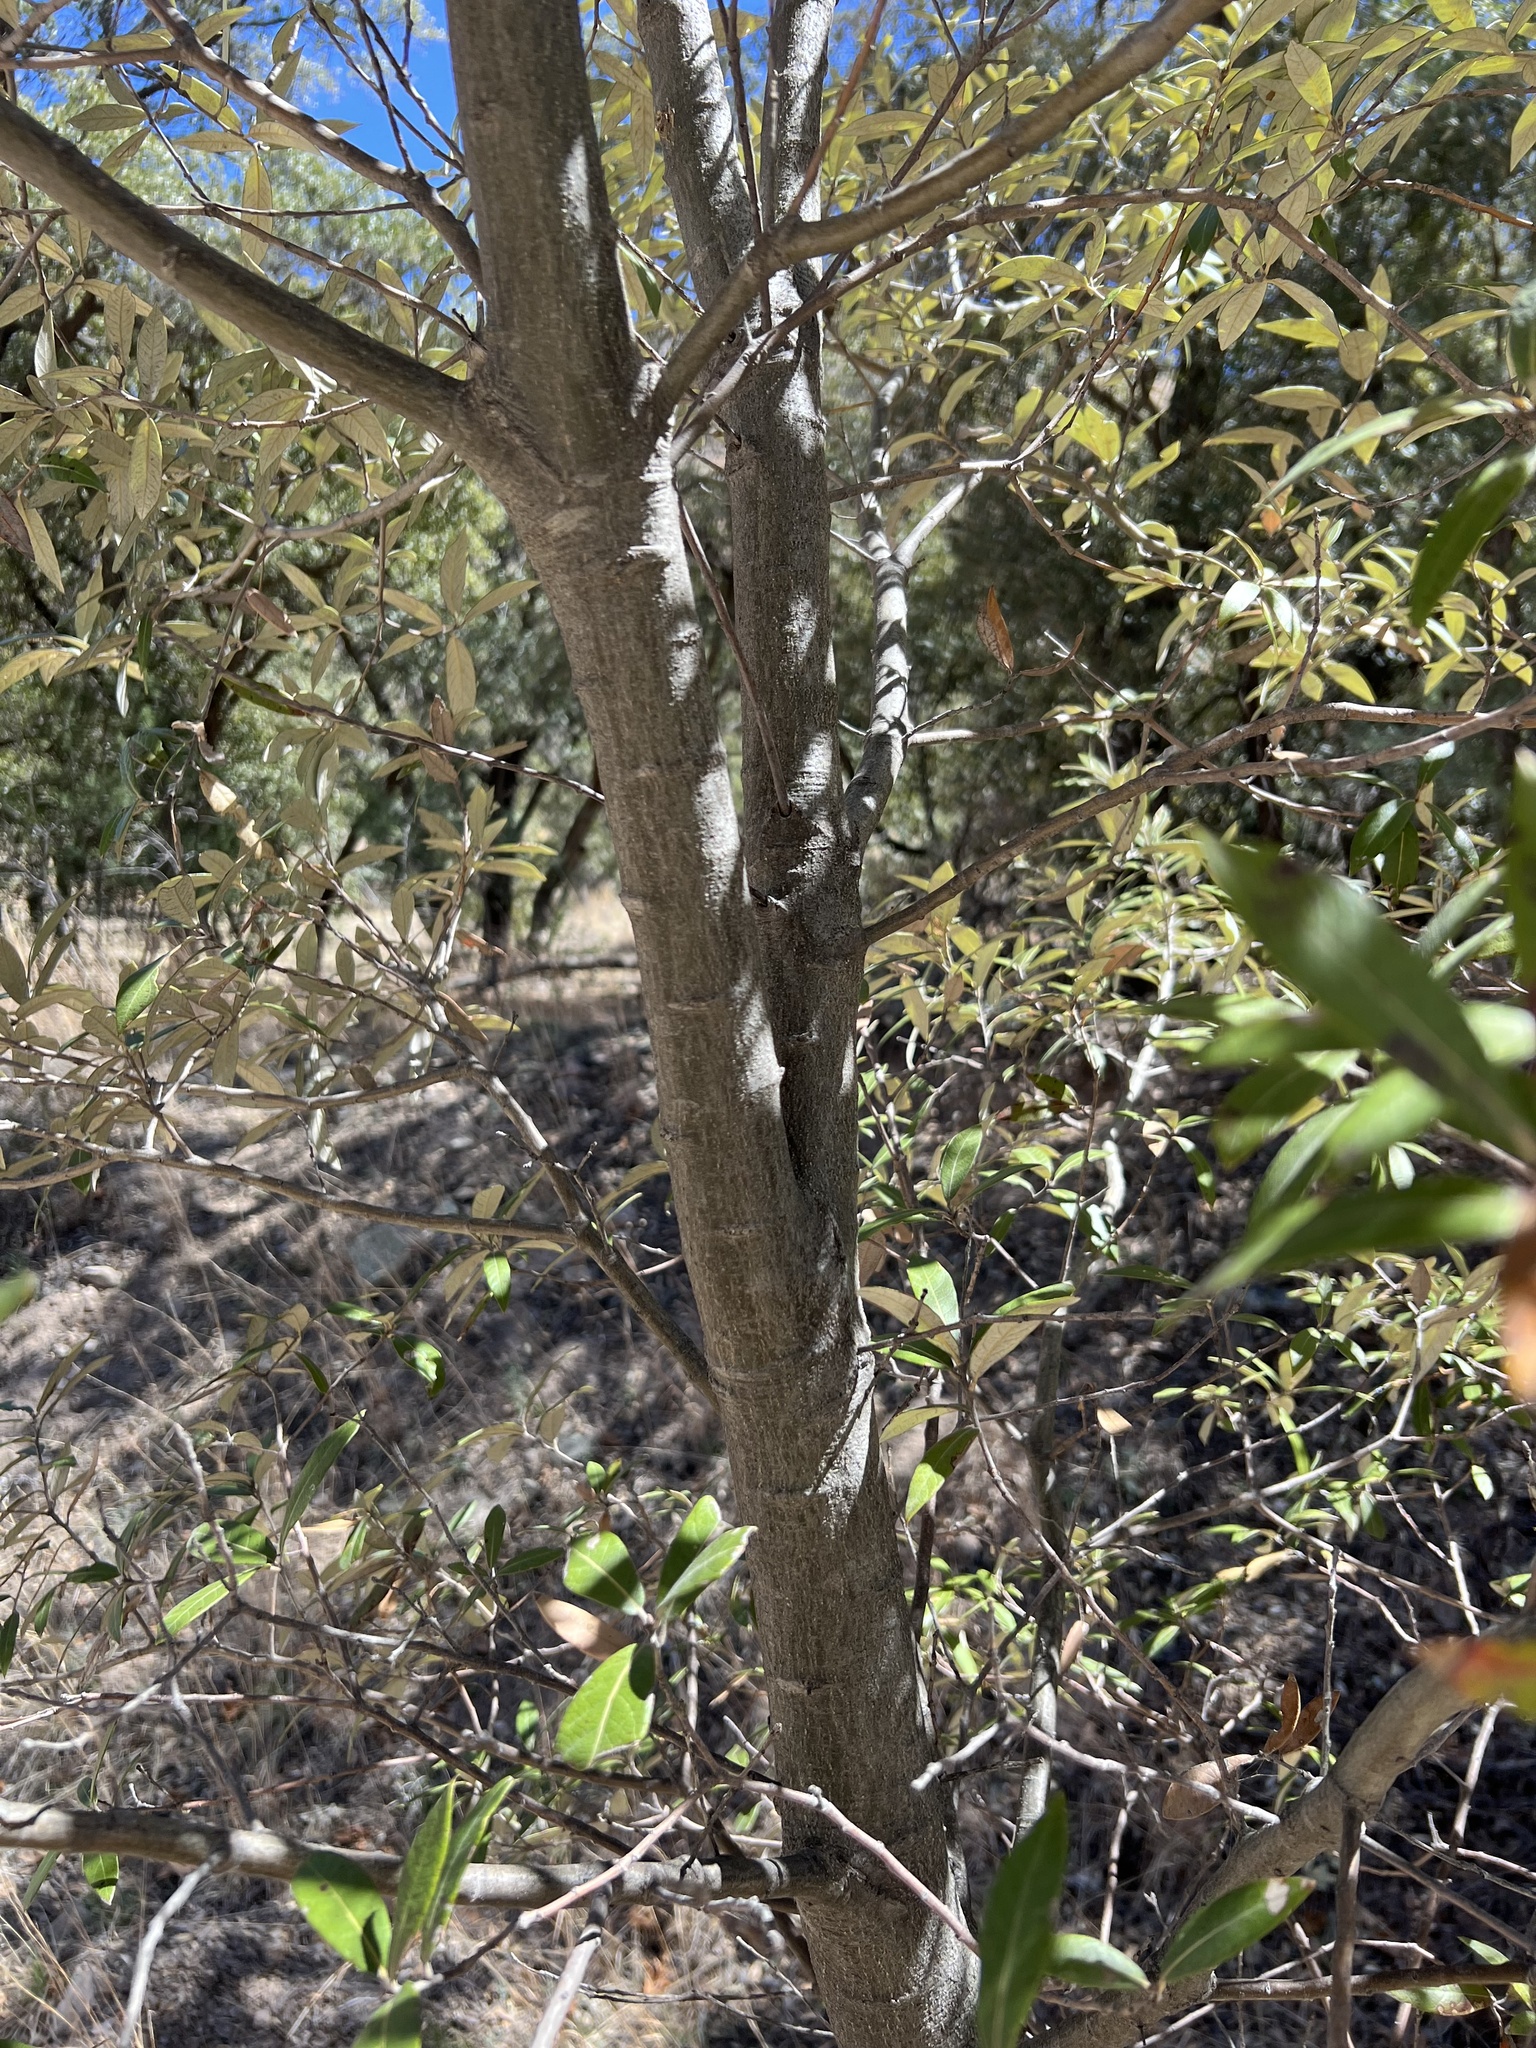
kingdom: Plantae
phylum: Tracheophyta
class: Magnoliopsida
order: Fagales
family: Fagaceae
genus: Quercus
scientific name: Quercus hypoleucoides
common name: Silverleaf oak
